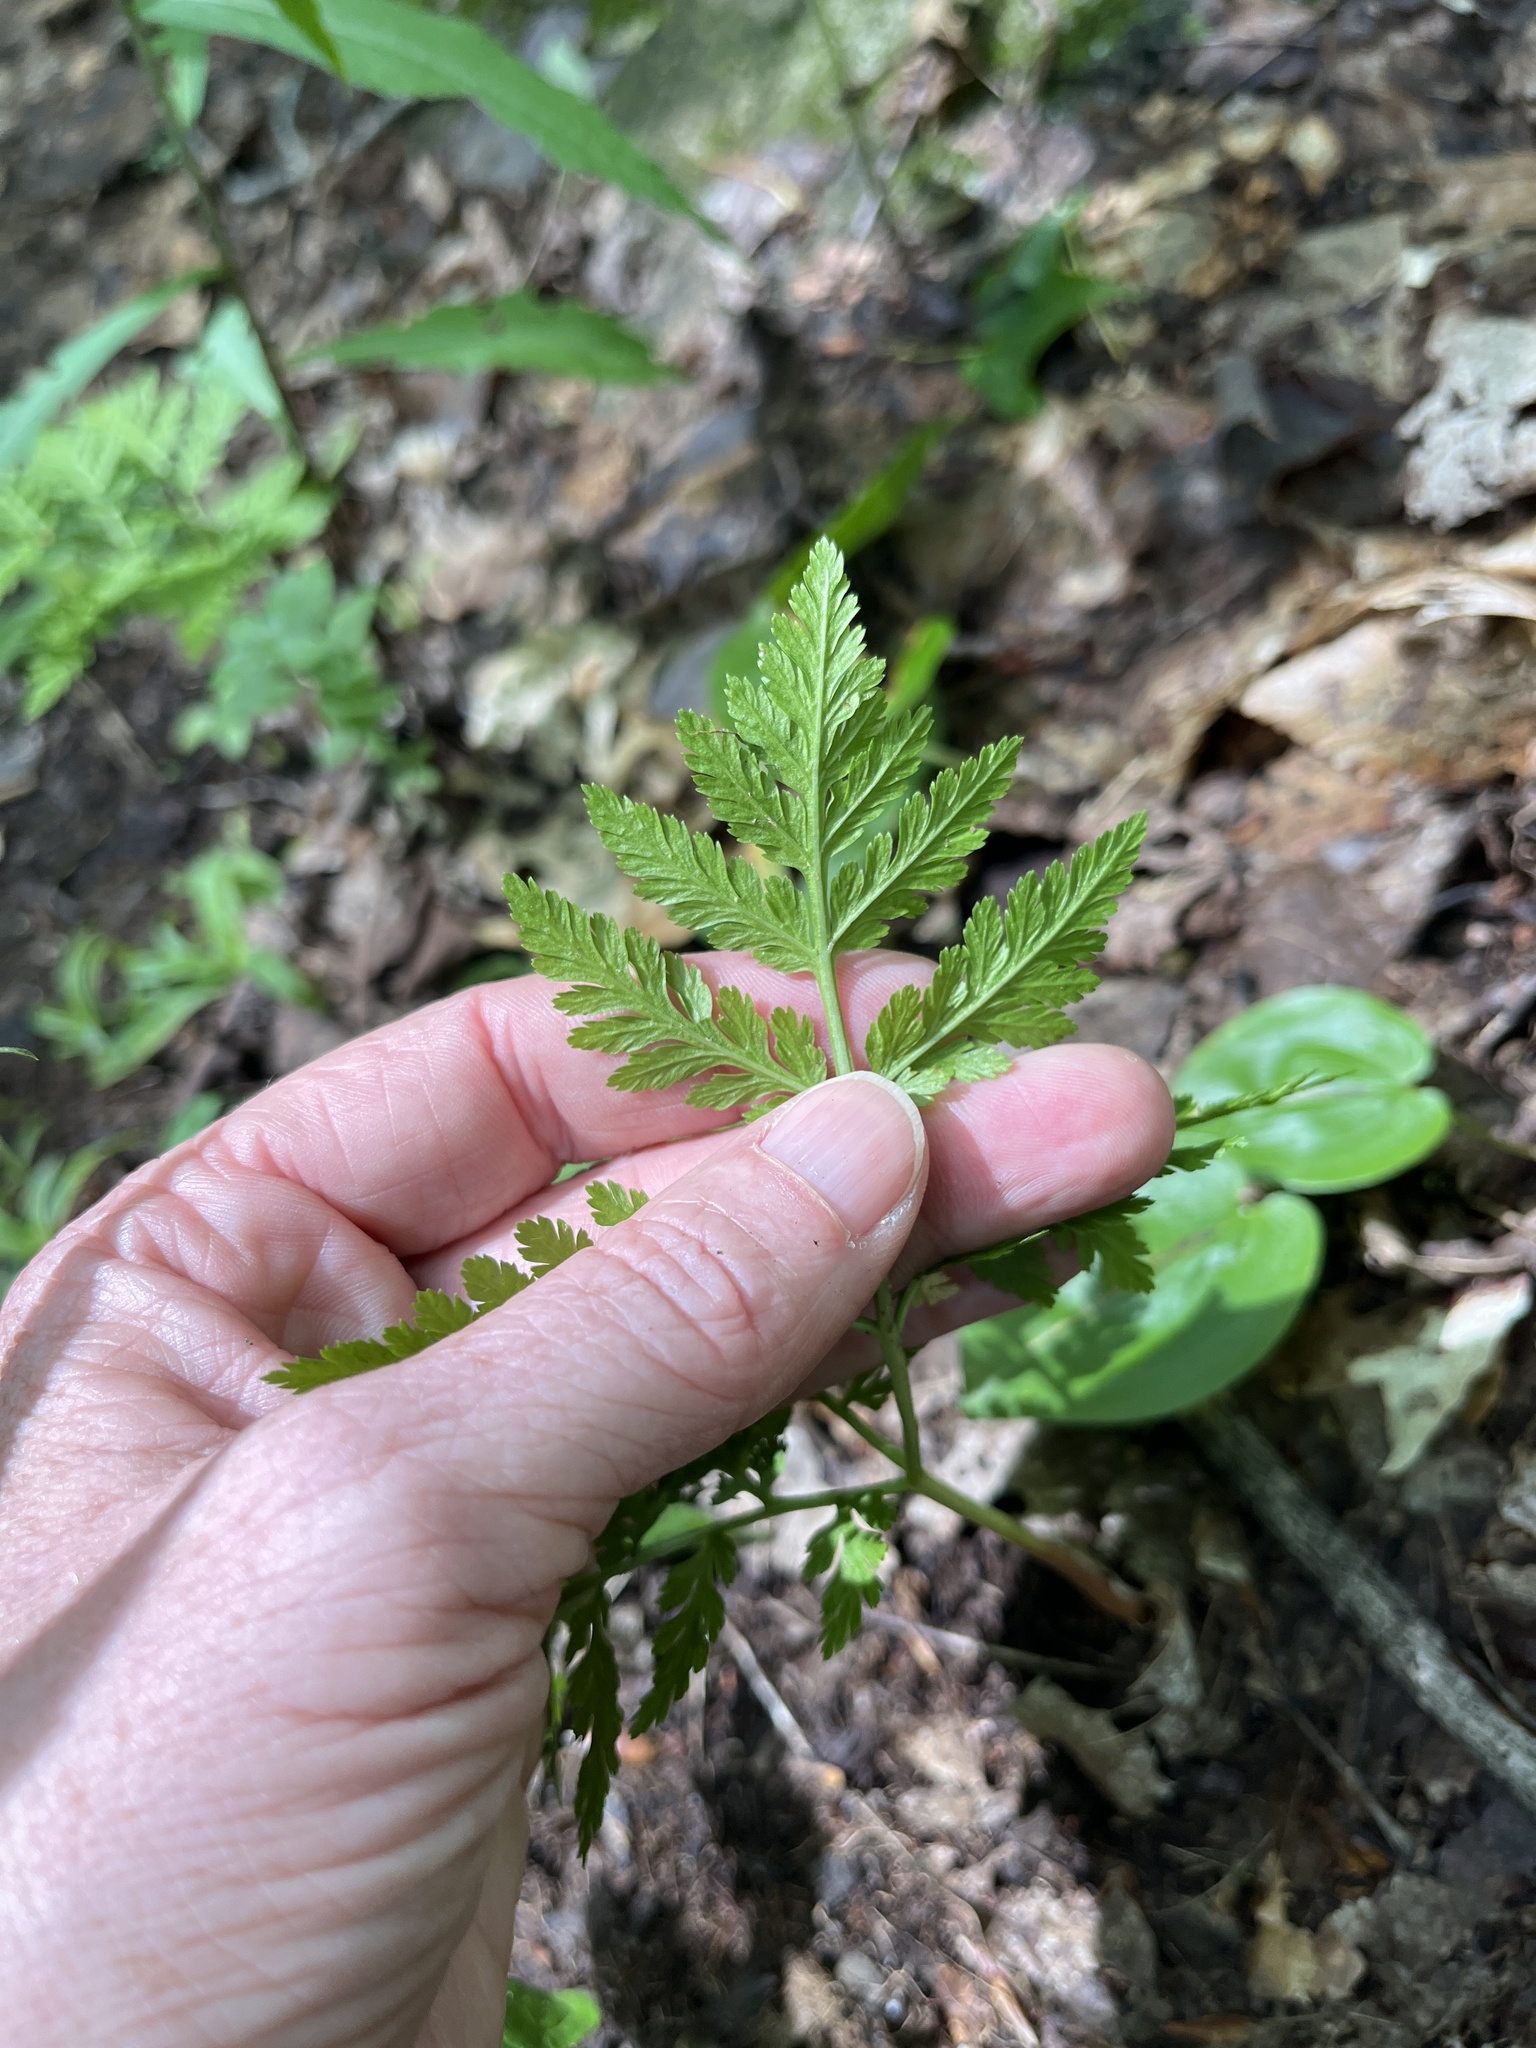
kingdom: Plantae
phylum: Tracheophyta
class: Polypodiopsida
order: Ophioglossales
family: Ophioglossaceae
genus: Botrypus
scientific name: Botrypus virginianus
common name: Common grapefern
